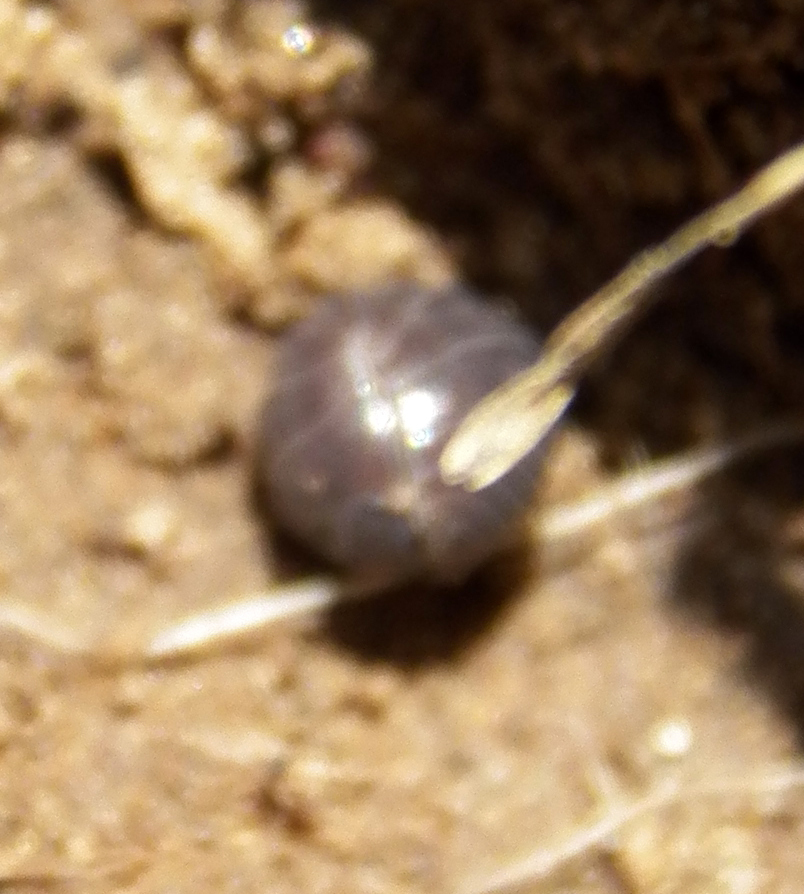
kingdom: Animalia
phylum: Arthropoda
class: Malacostraca
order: Isopoda
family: Armadillidiidae
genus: Armadillidium
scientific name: Armadillidium vulgare
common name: Common pill woodlouse
